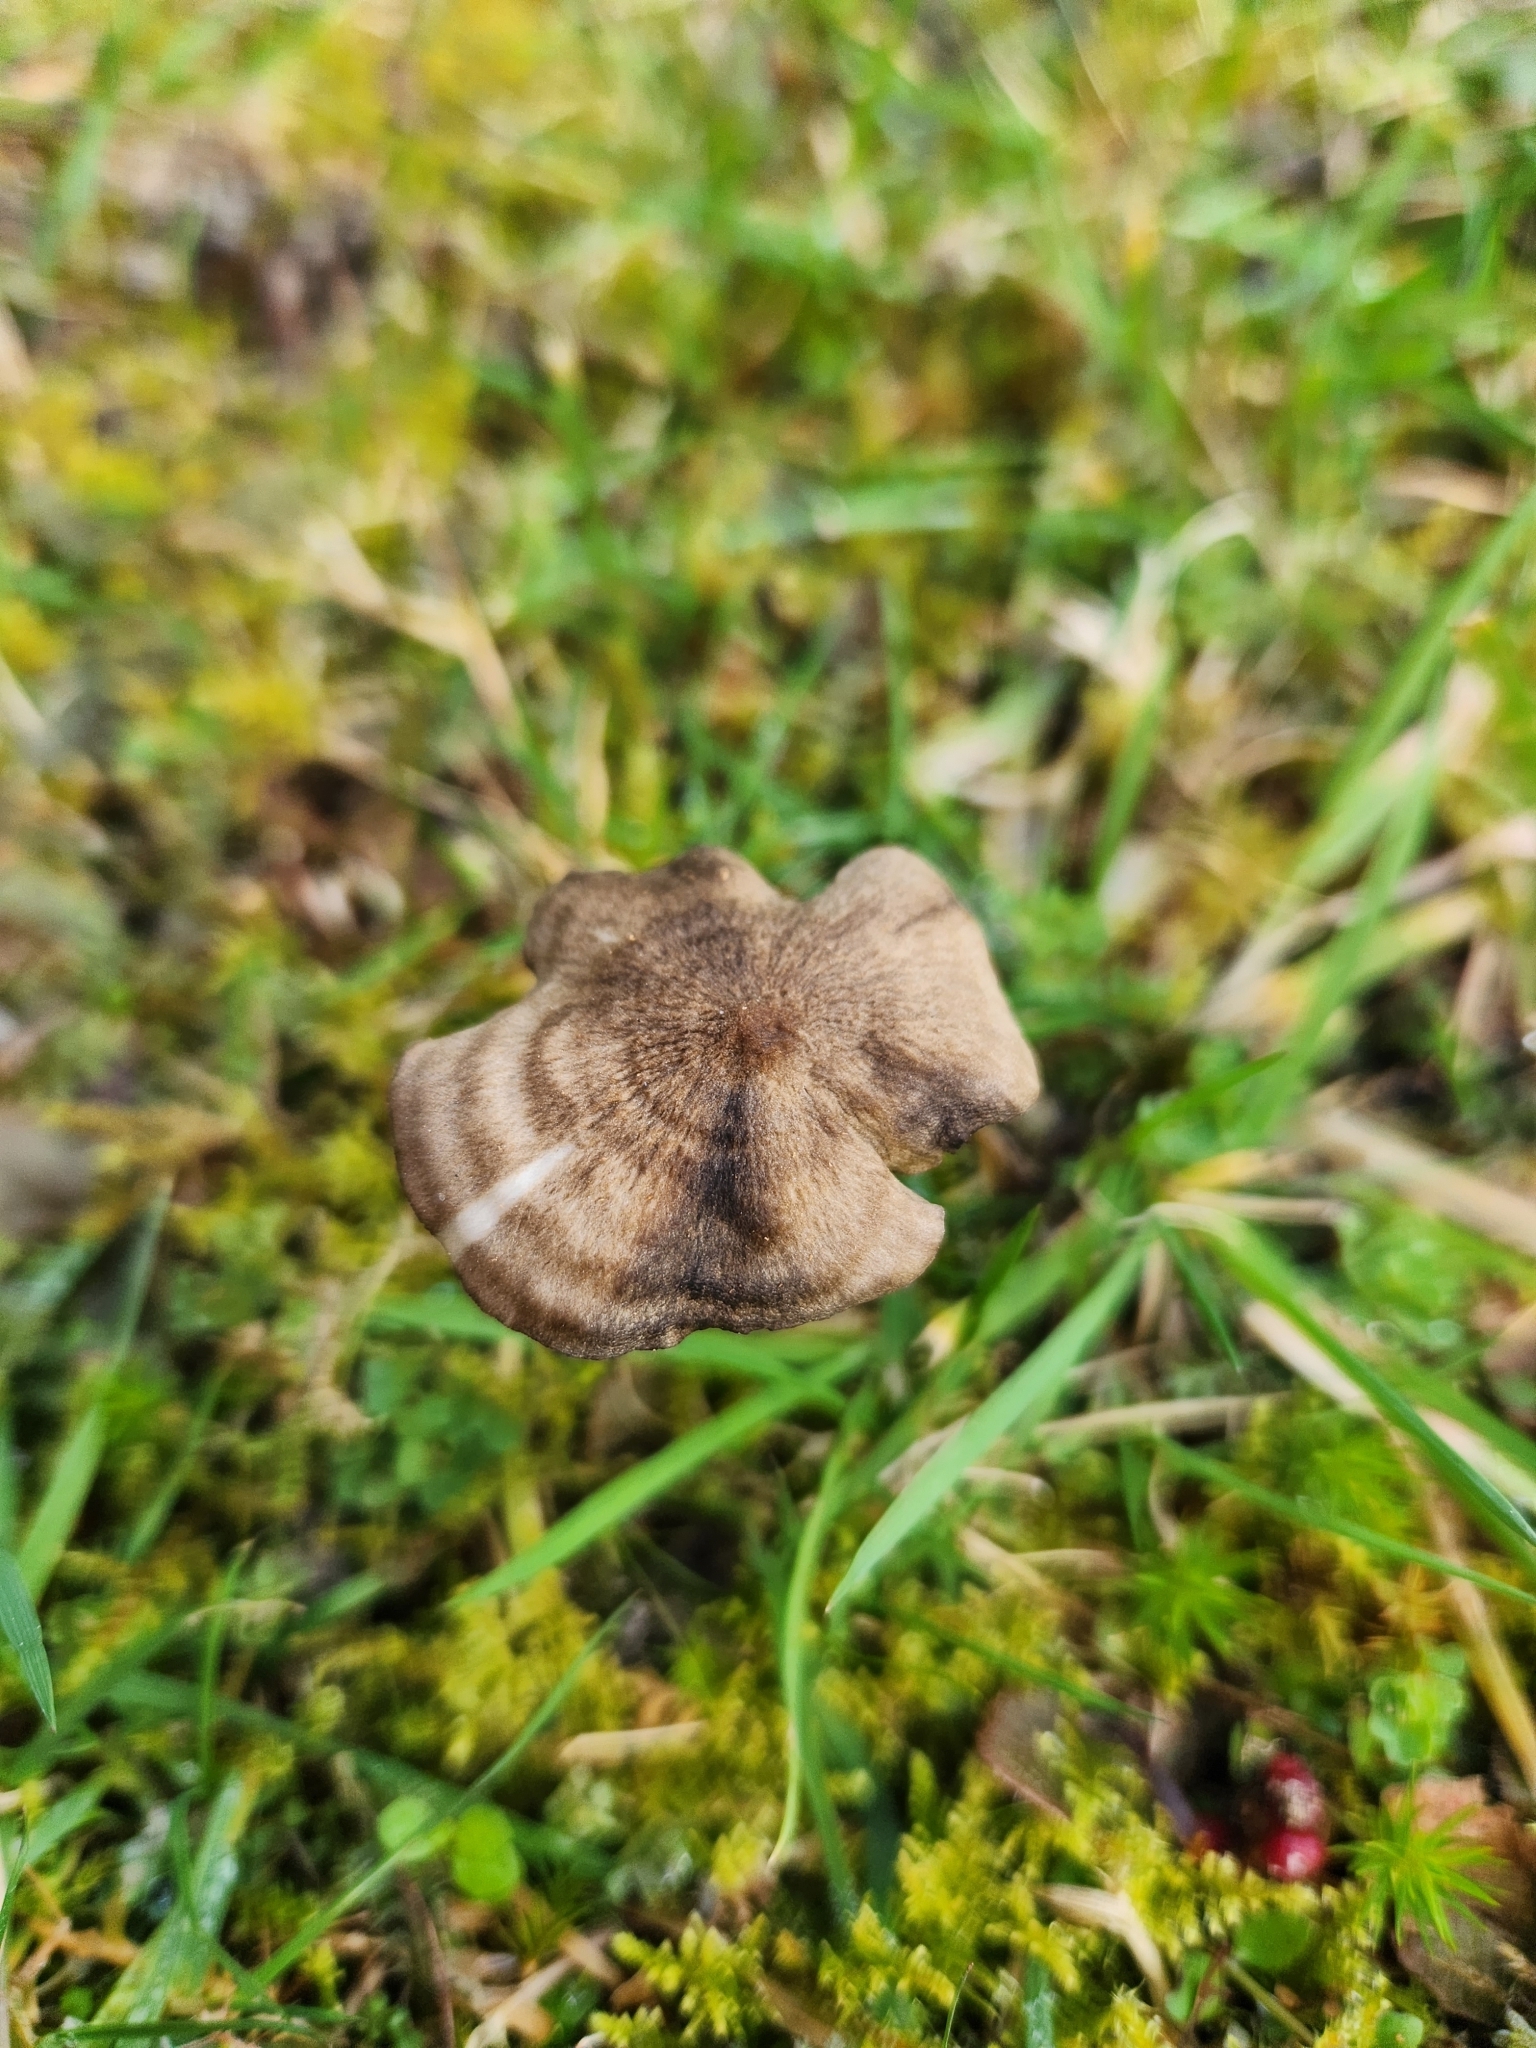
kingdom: Fungi
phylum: Basidiomycota
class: Agaricomycetes
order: Agaricales
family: Entolomataceae
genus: Entoloma
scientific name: Entoloma perzonatum
